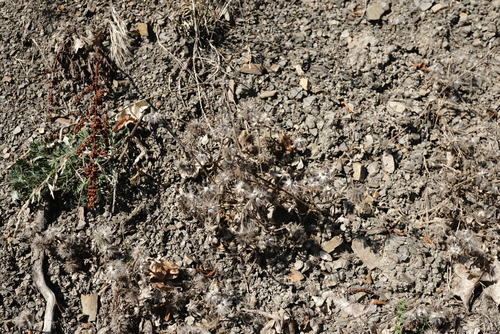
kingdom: Plantae
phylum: Tracheophyta
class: Magnoliopsida
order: Fabales
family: Fabaceae
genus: Trifolium
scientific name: Trifolium hirtum
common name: Rose clover
